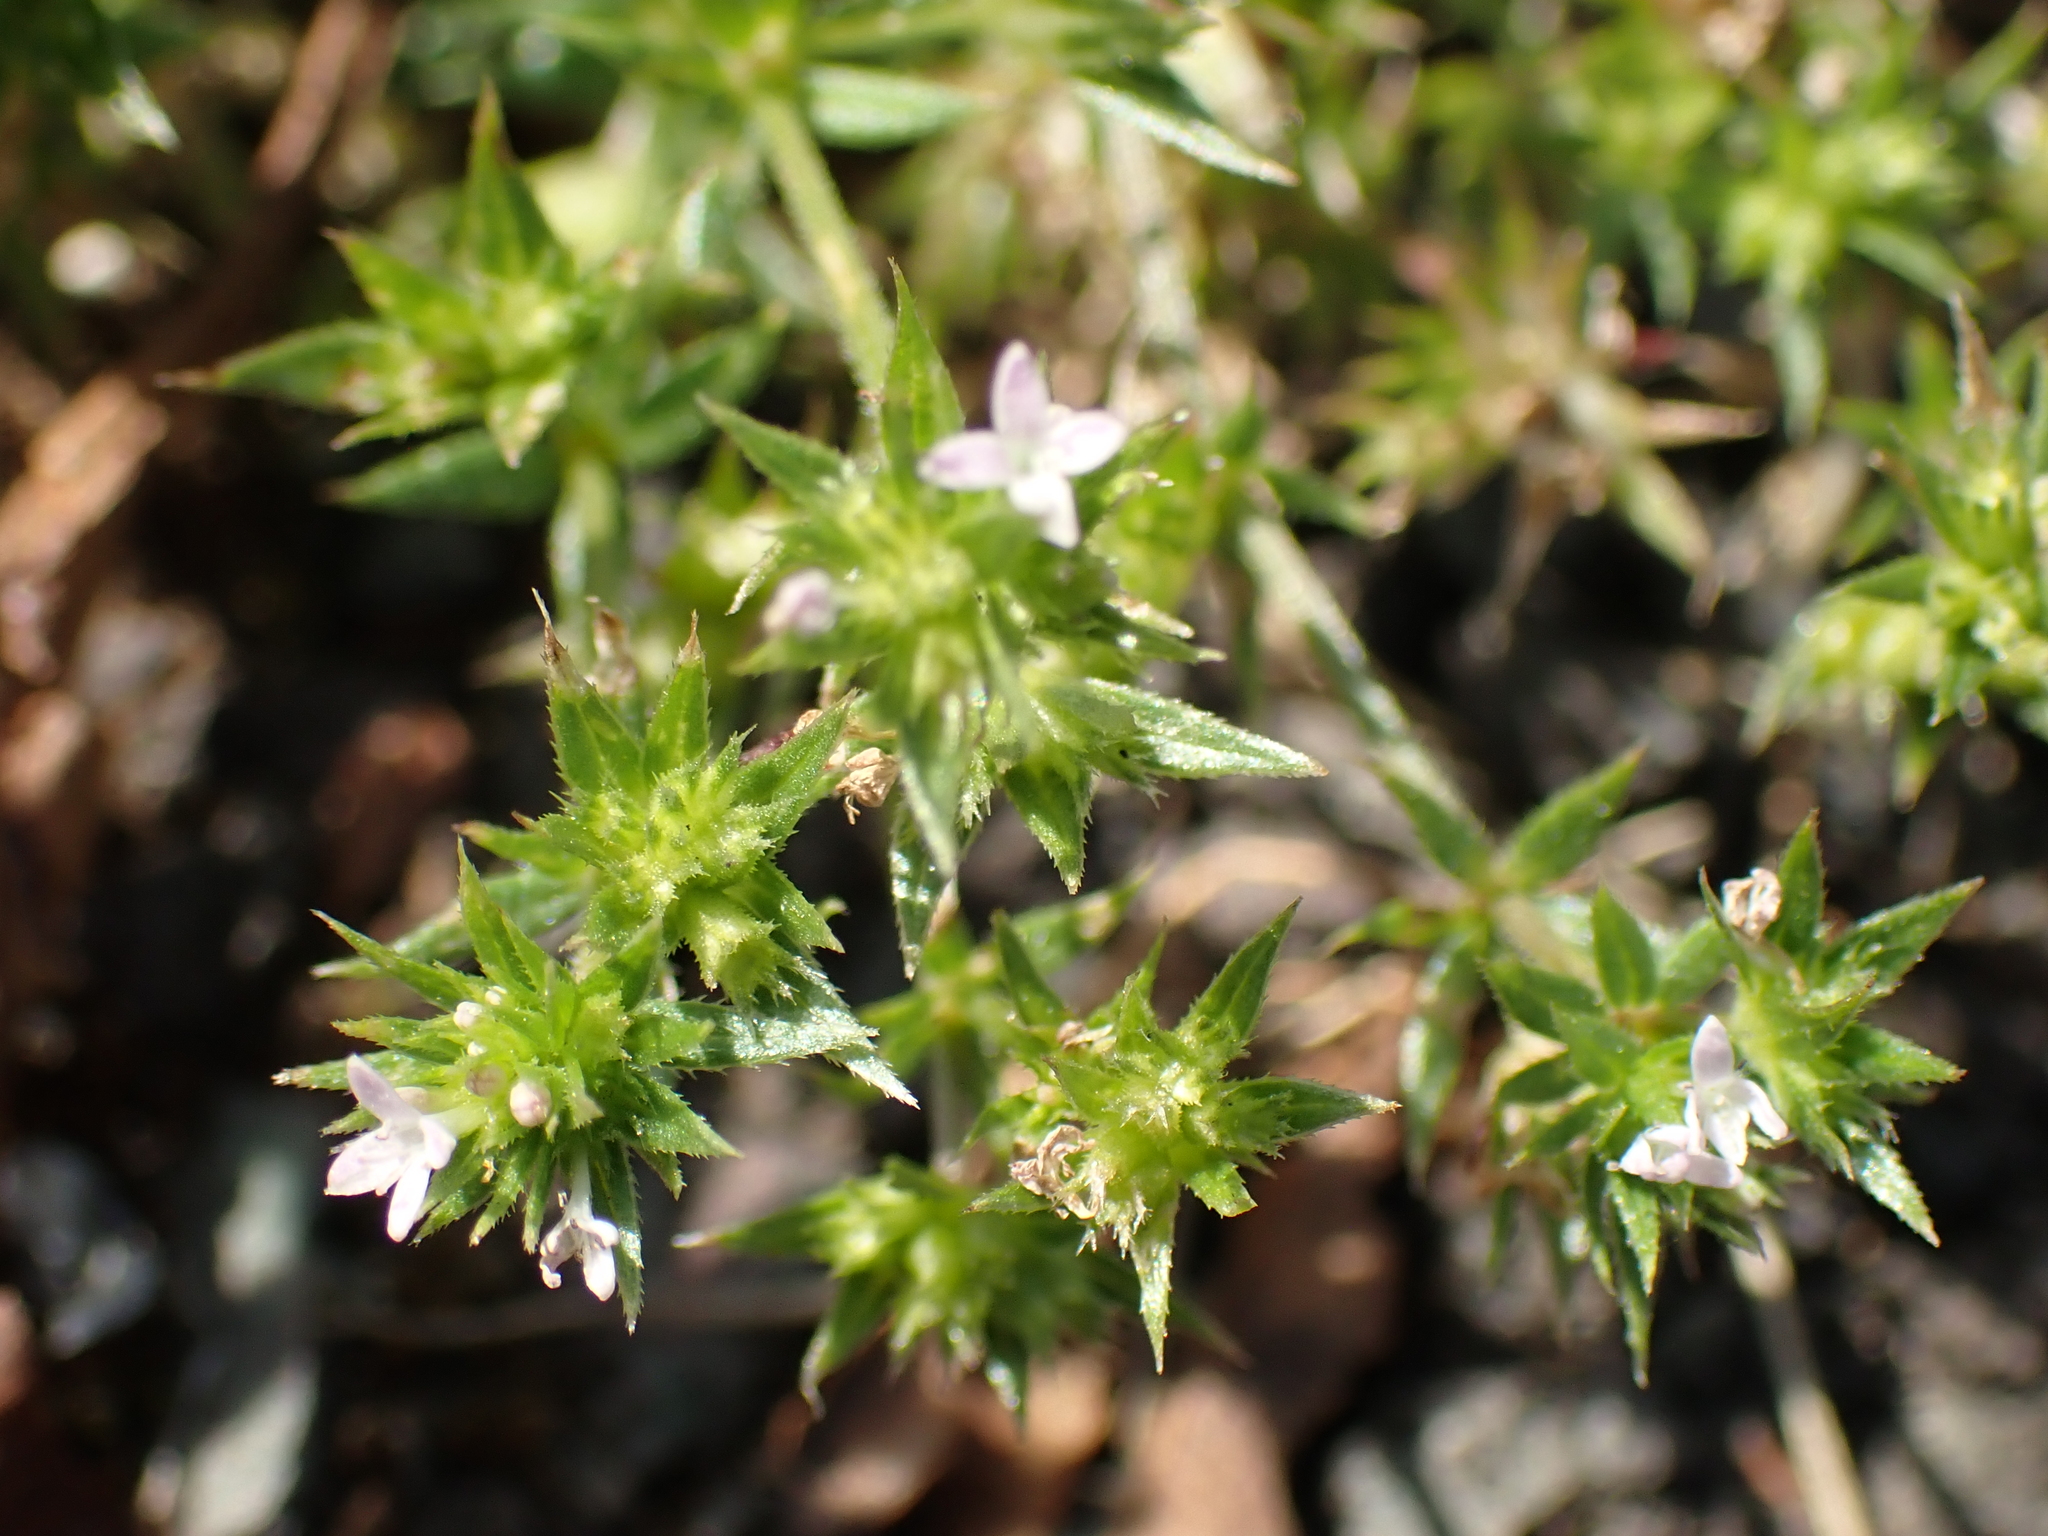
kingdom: Plantae
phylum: Tracheophyta
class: Magnoliopsida
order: Gentianales
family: Rubiaceae
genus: Sherardia
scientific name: Sherardia arvensis
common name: Field madder
